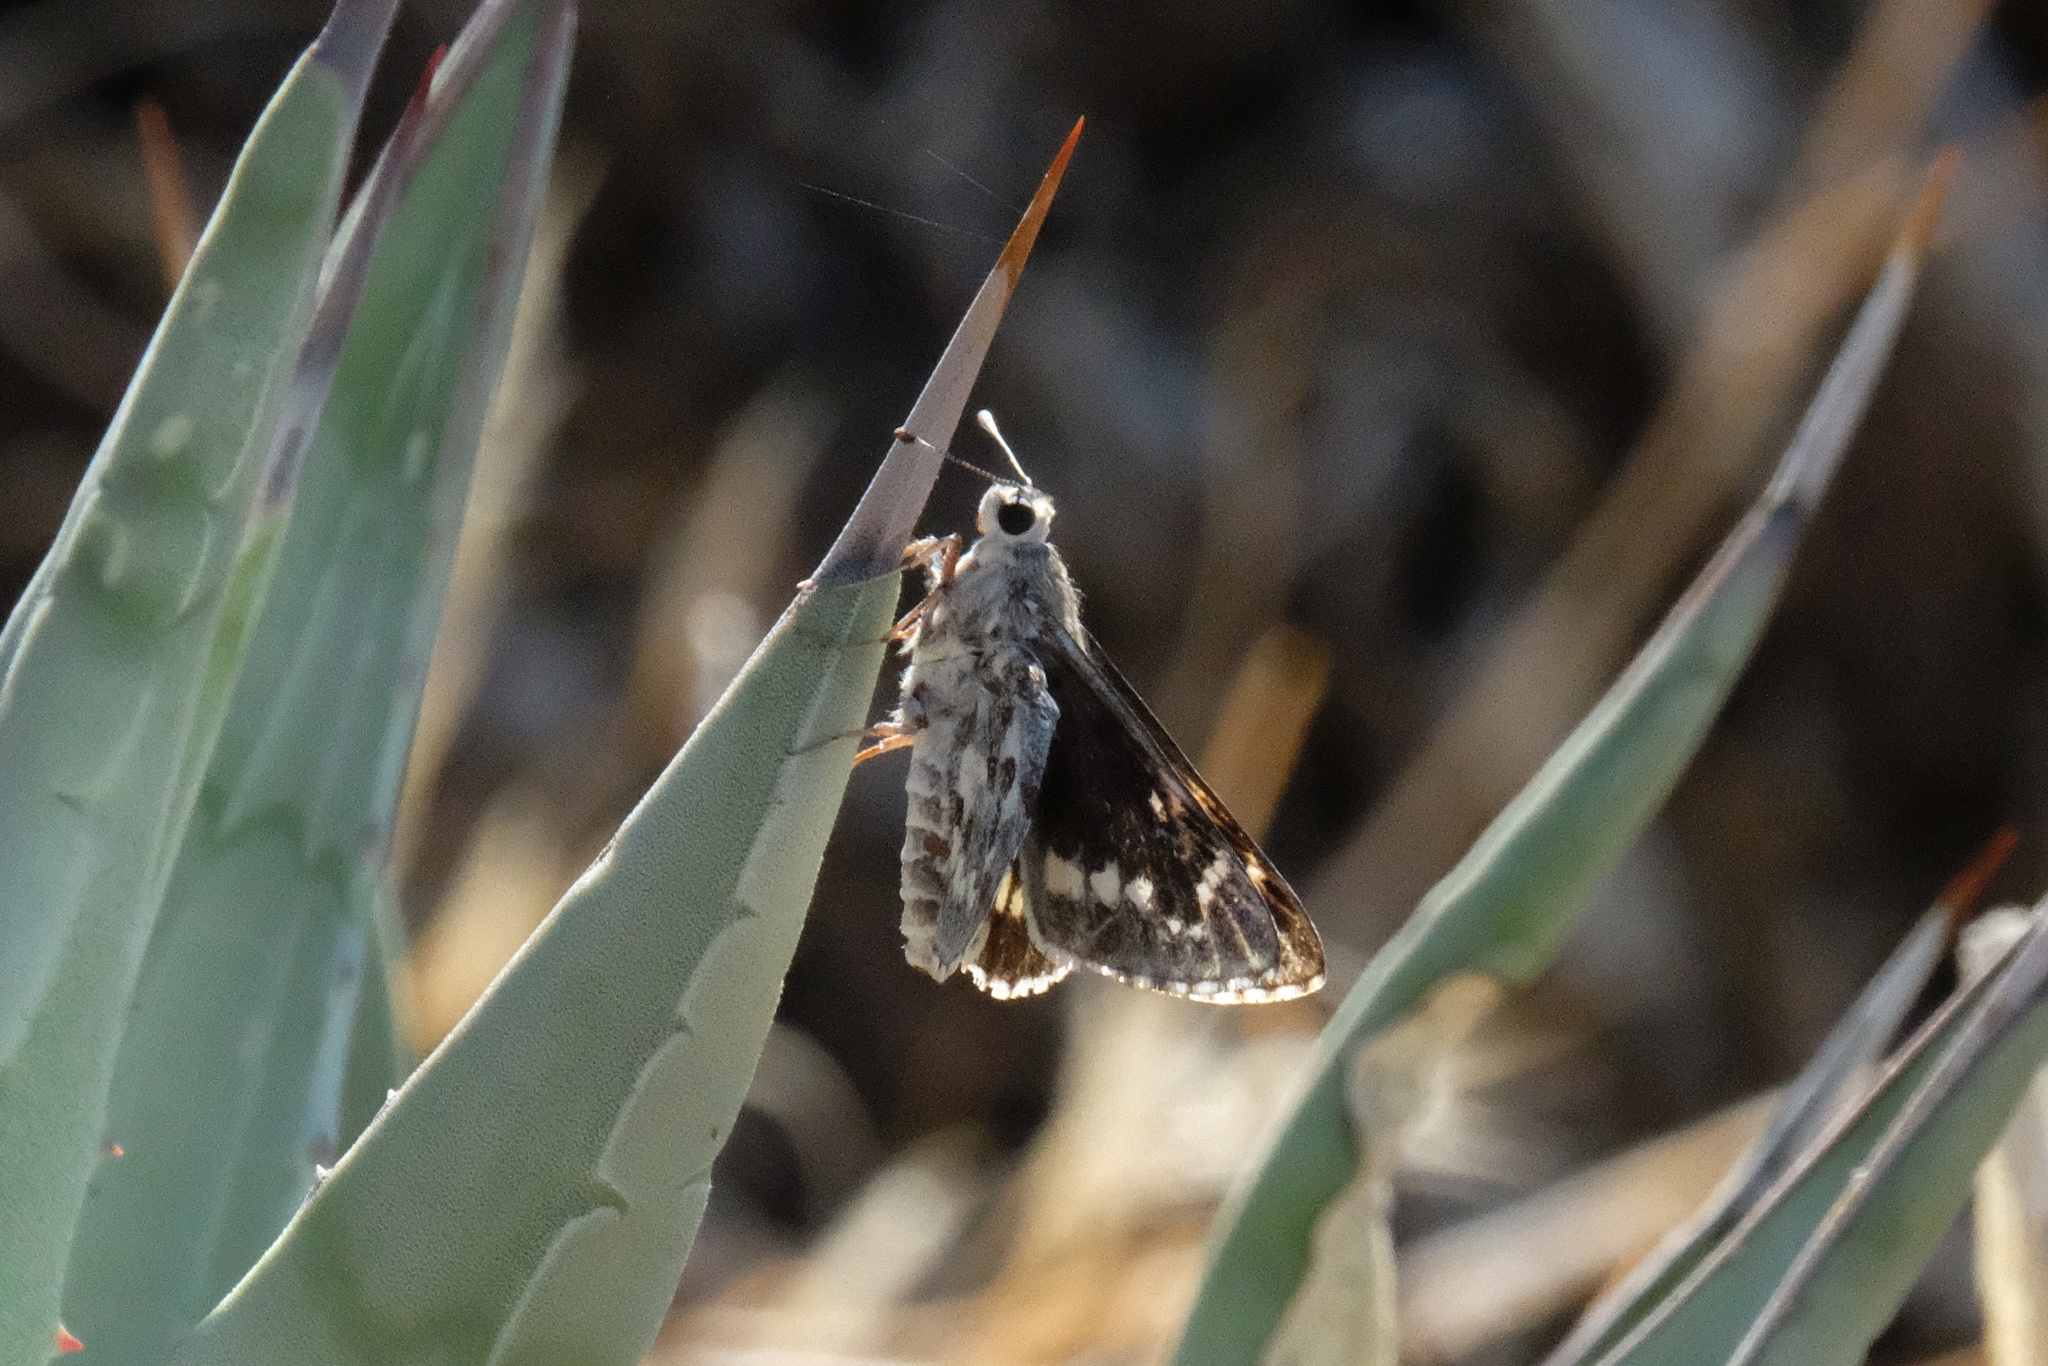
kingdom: Animalia
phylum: Arthropoda
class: Insecta
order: Lepidoptera
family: Hesperiidae
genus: Agathymus
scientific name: Agathymus stephensi
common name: California giant-skipper
